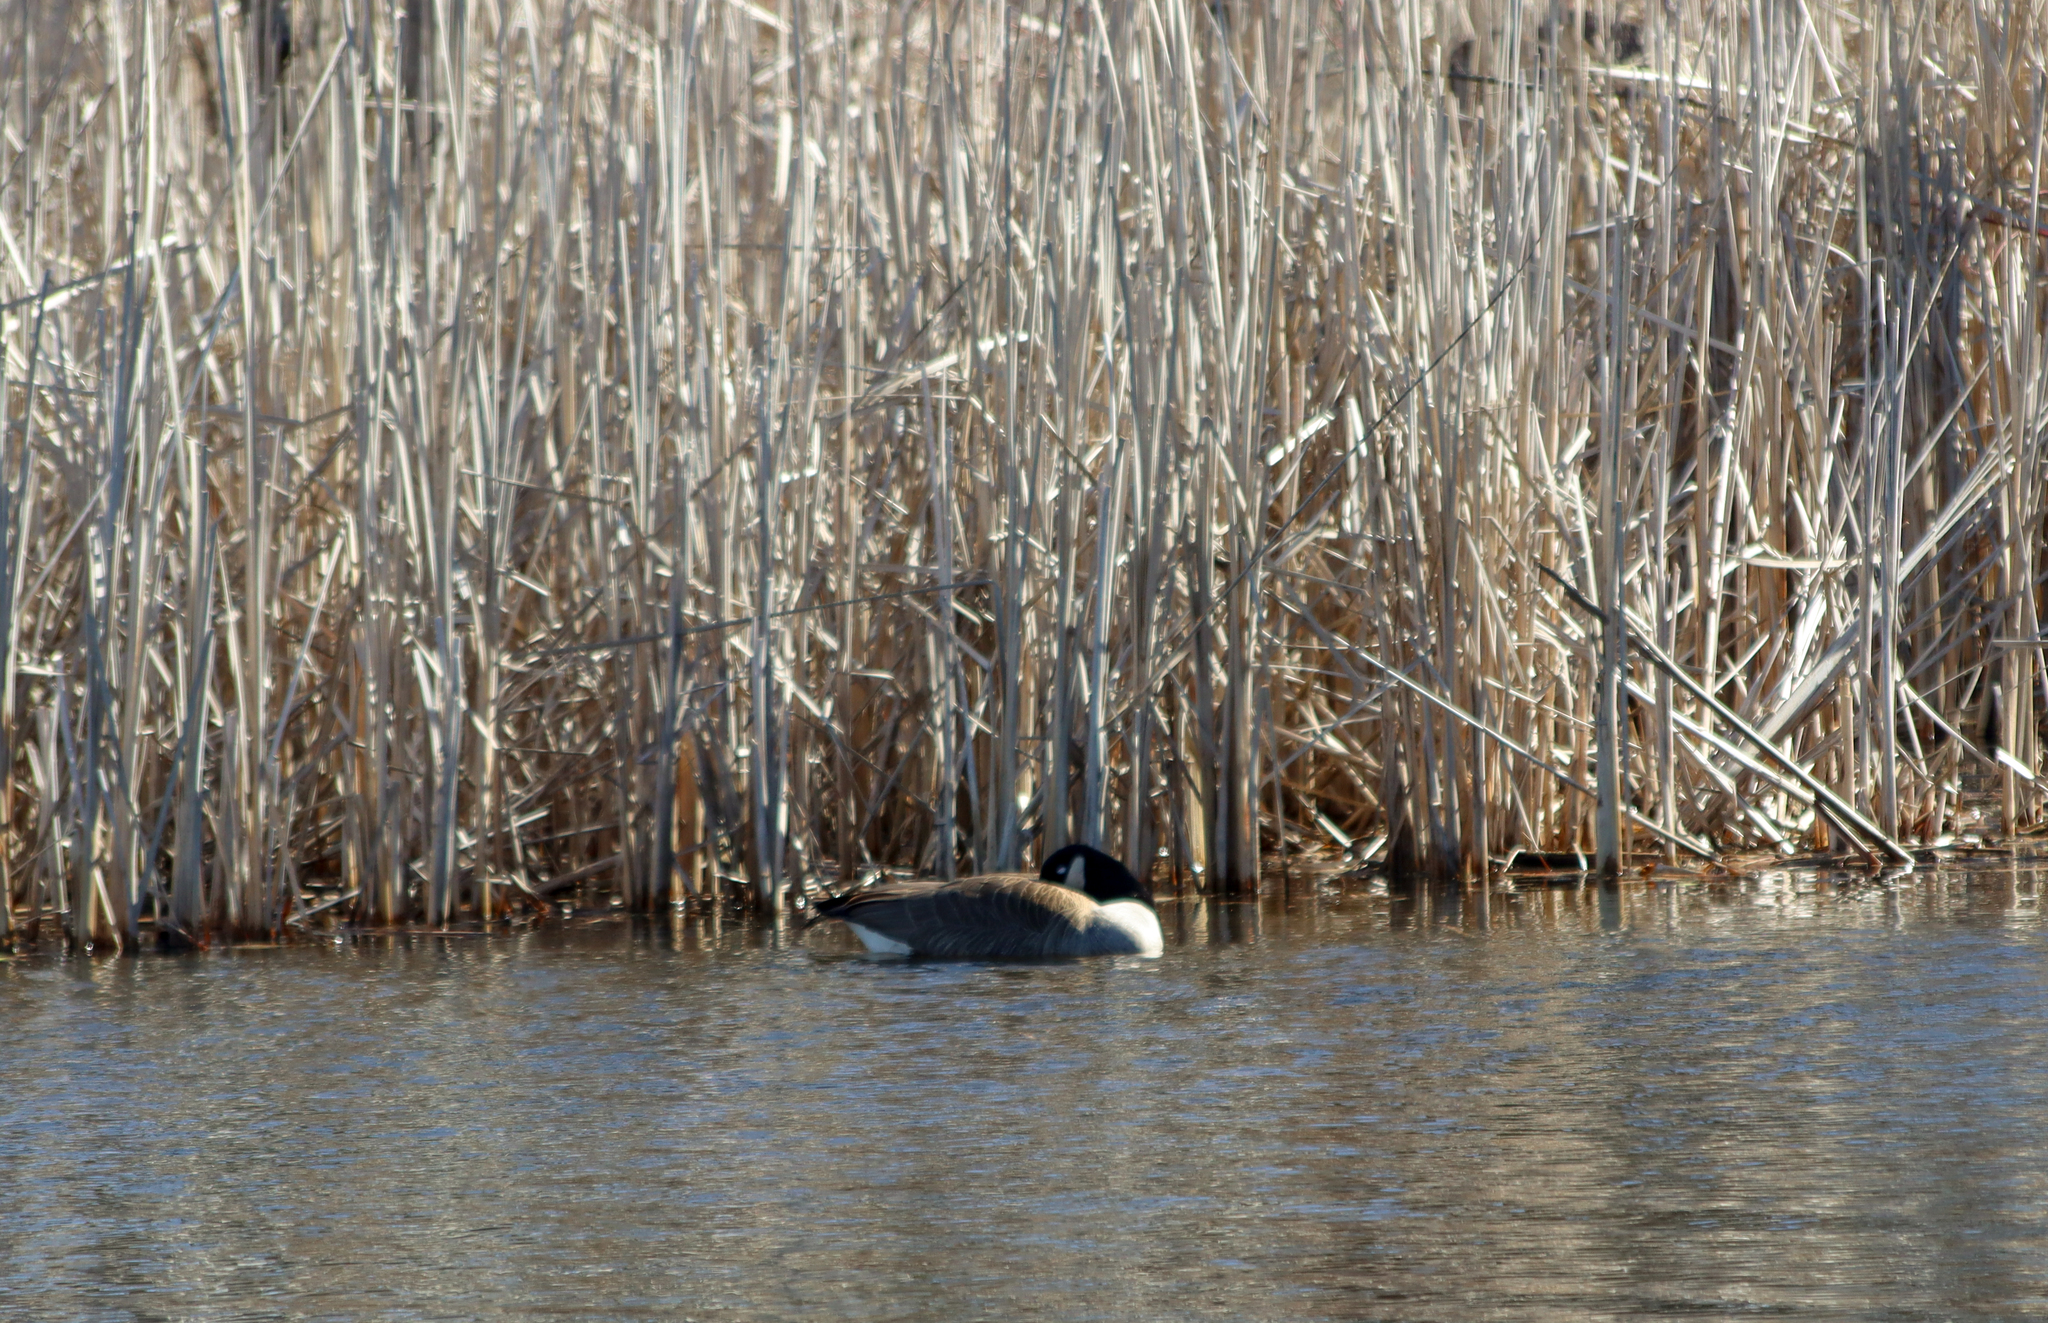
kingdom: Animalia
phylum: Chordata
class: Aves
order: Anseriformes
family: Anatidae
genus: Branta
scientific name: Branta canadensis
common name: Canada goose
